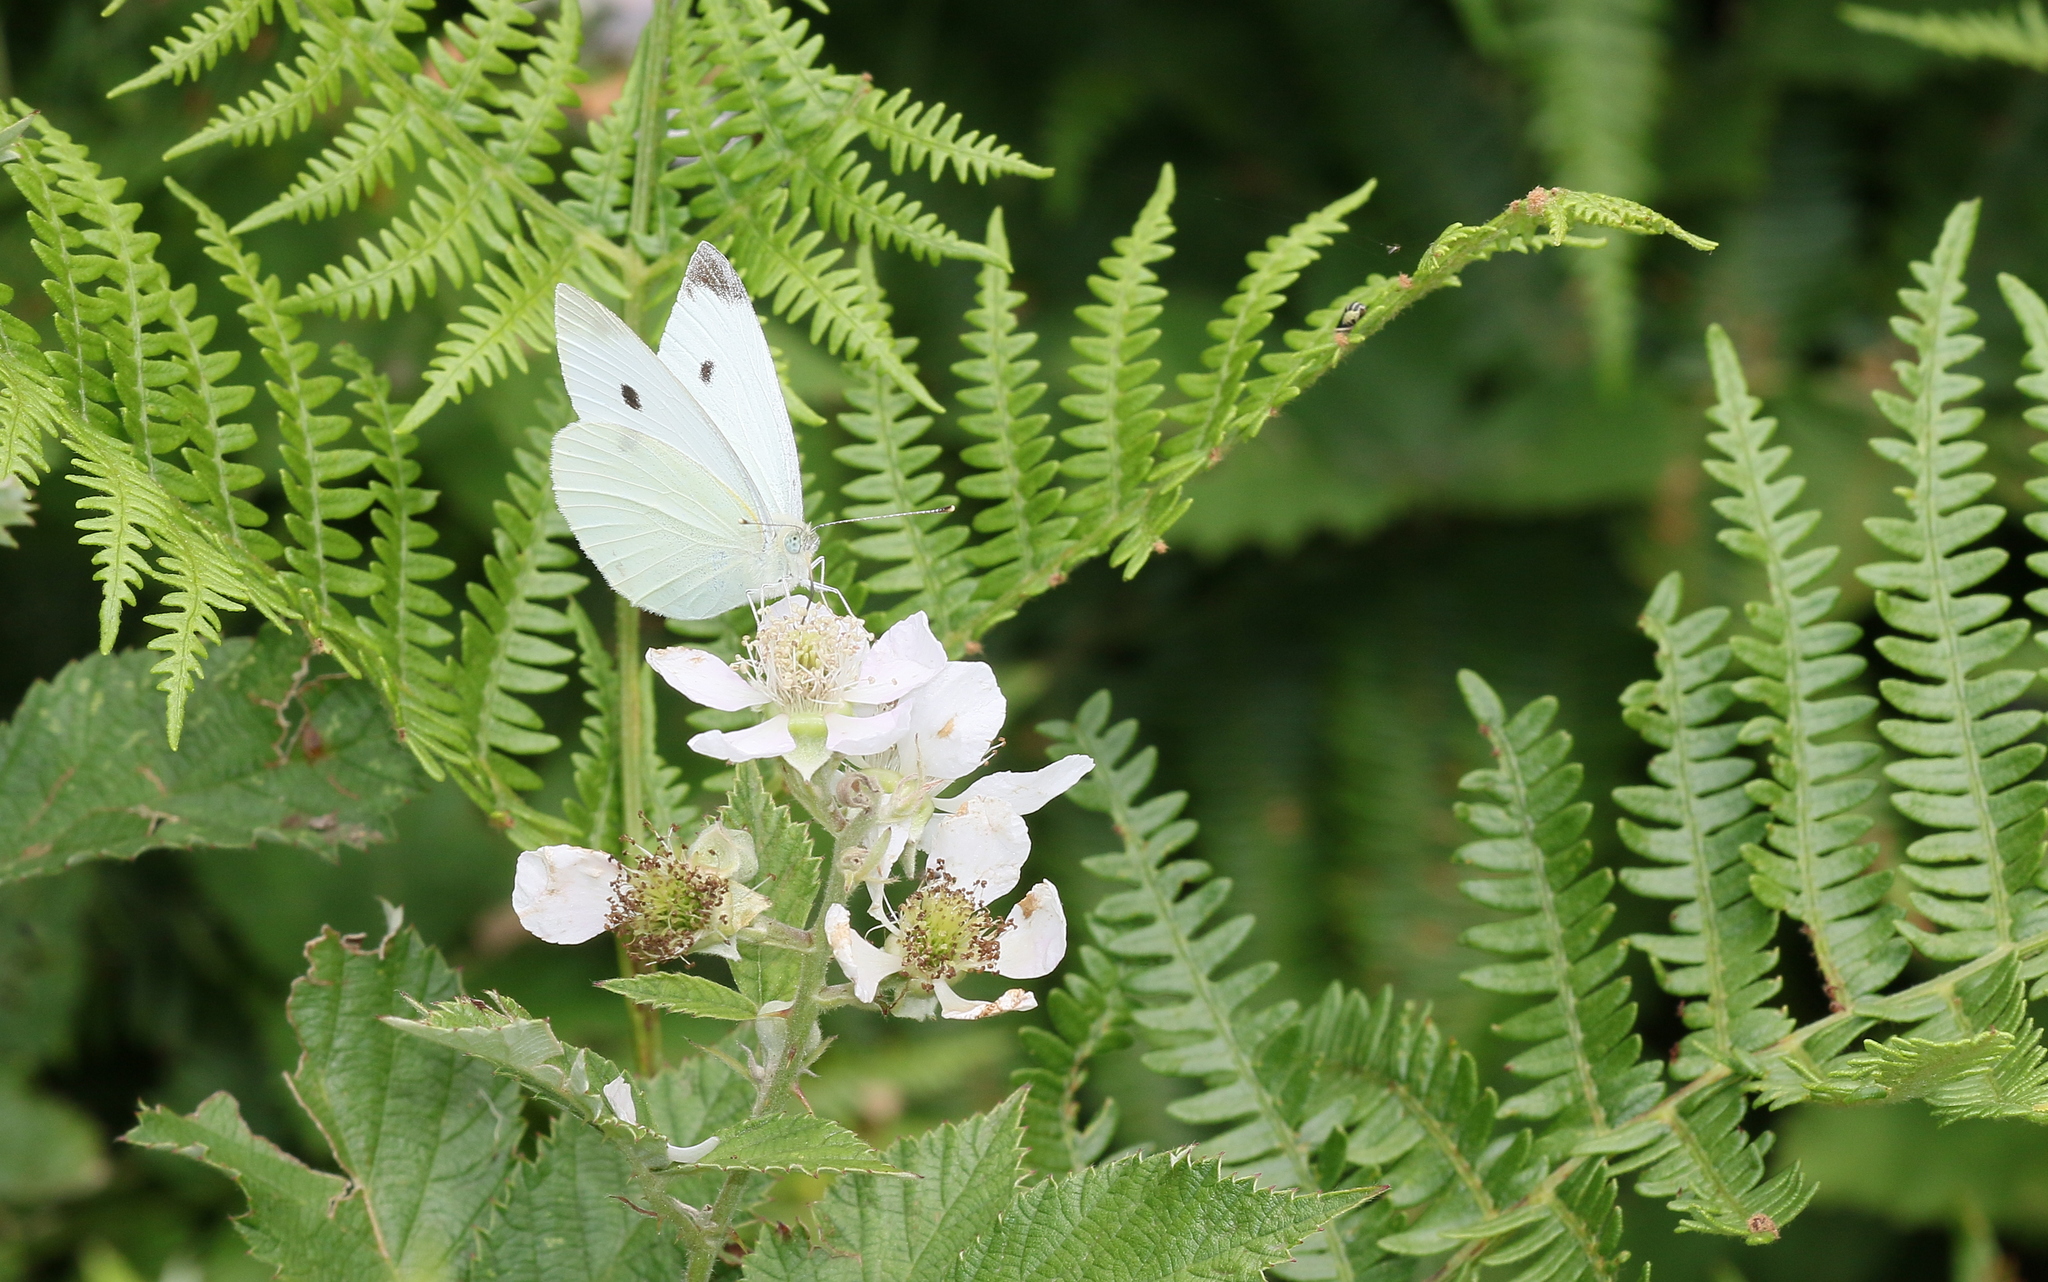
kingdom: Animalia
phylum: Arthropoda
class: Insecta
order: Lepidoptera
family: Pieridae
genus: Pieris
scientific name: Pieris rapae
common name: Small white
